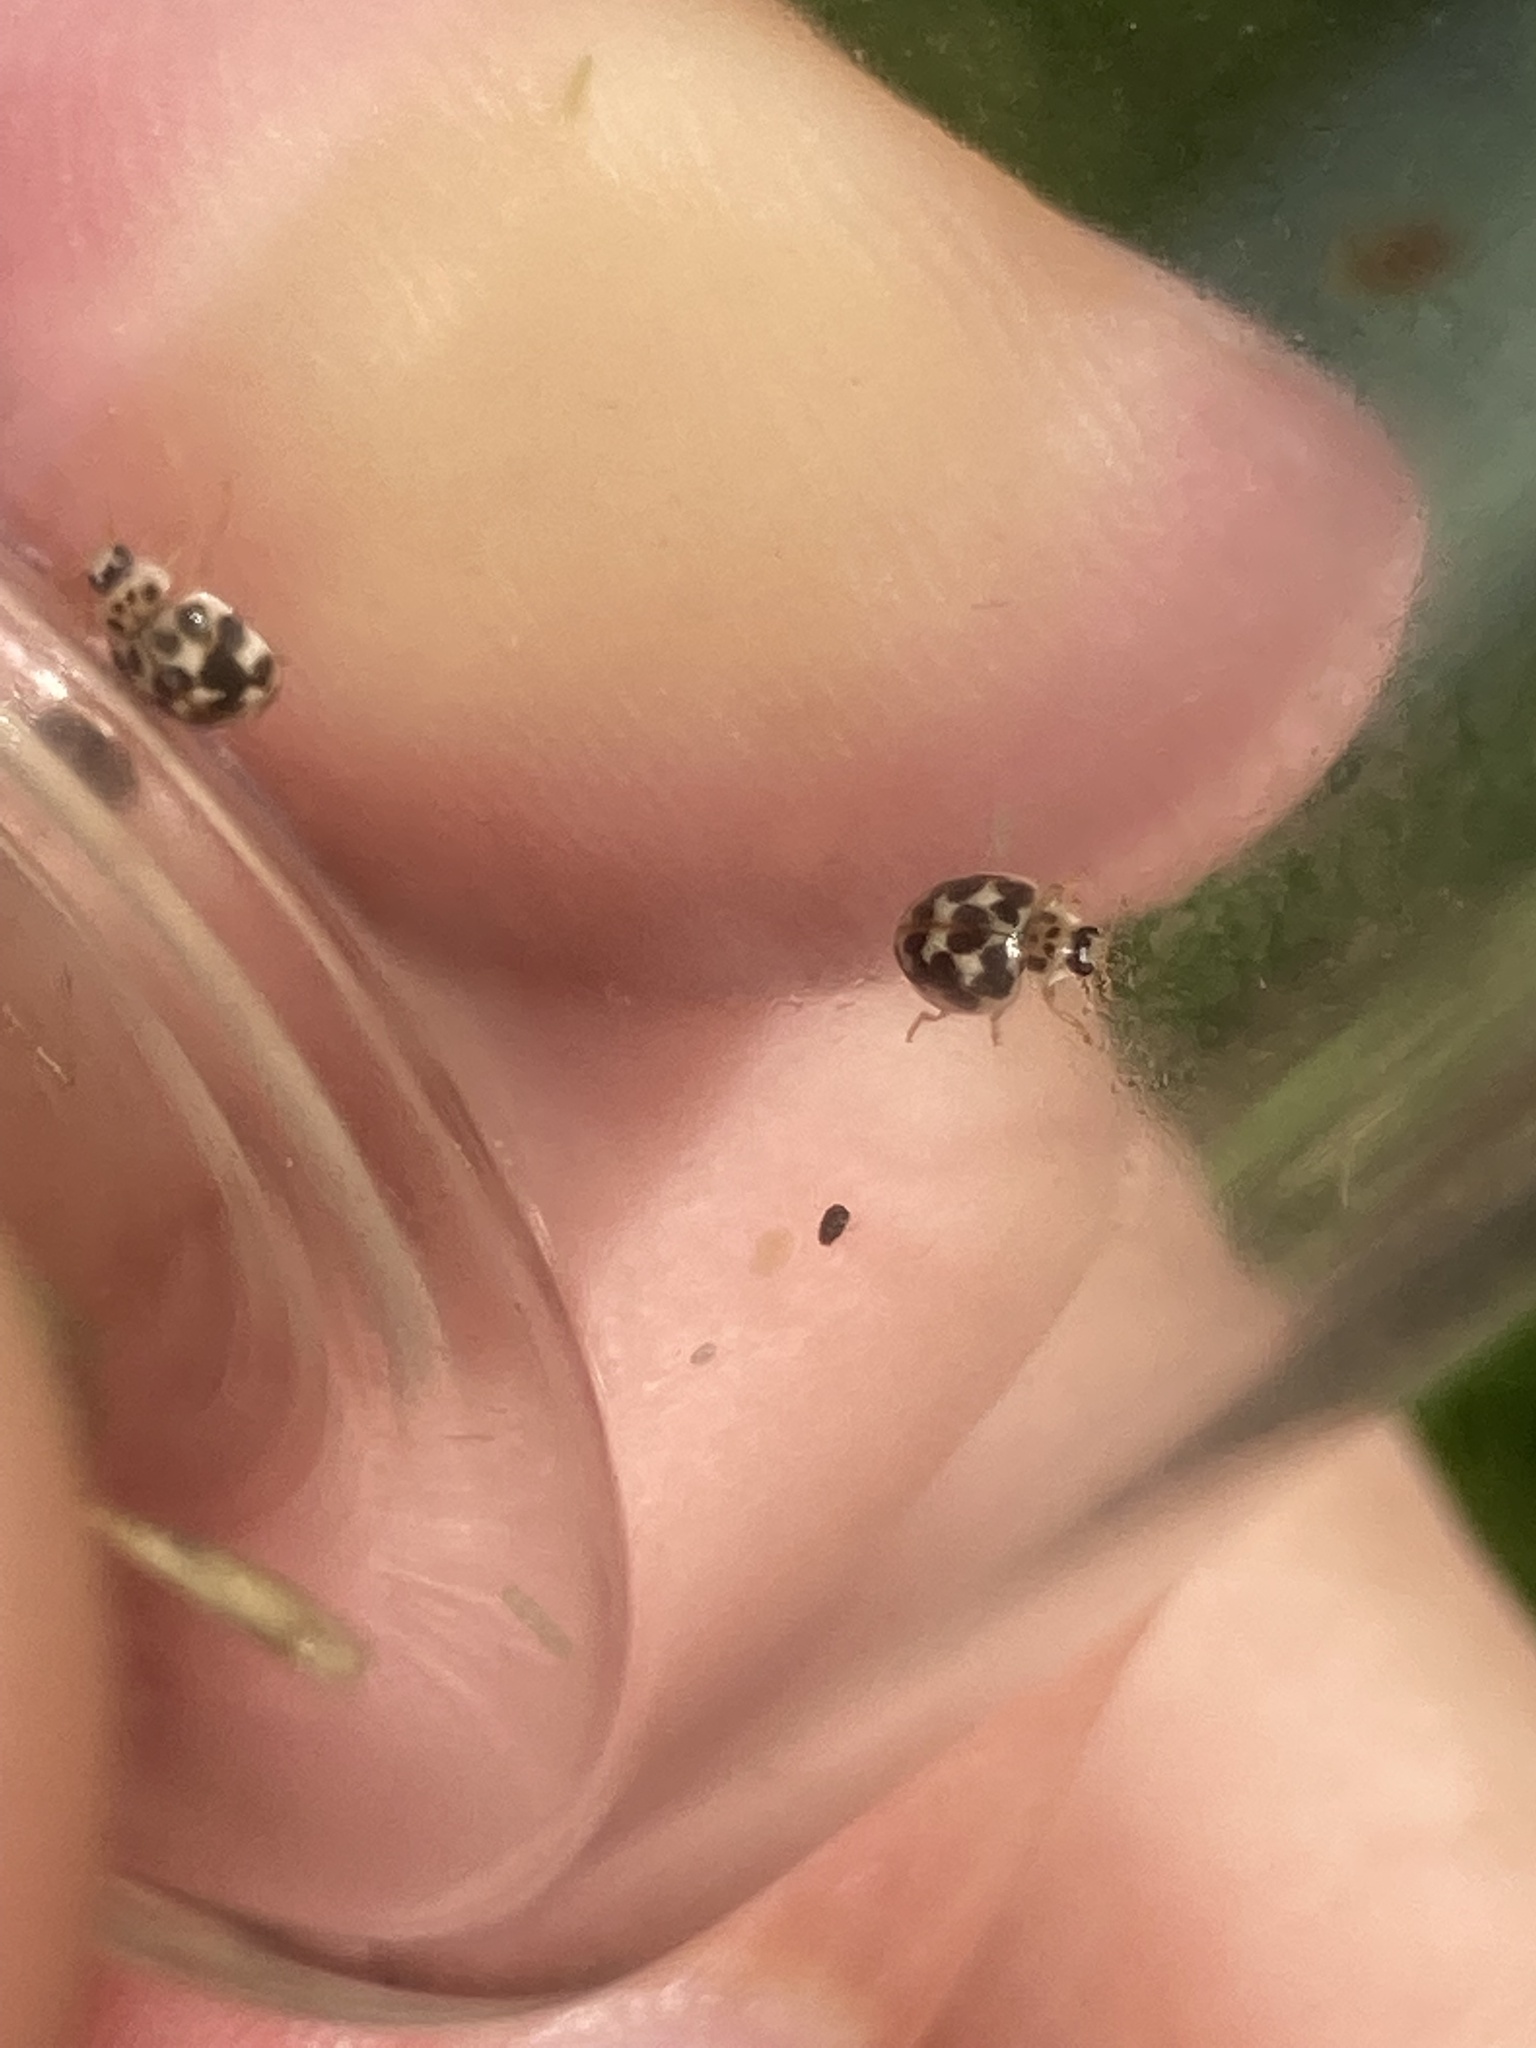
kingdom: Animalia
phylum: Arthropoda
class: Insecta
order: Coleoptera
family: Coccinellidae
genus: Psyllobora
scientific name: Psyllobora vigintimaculata
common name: Ladybird beetle
